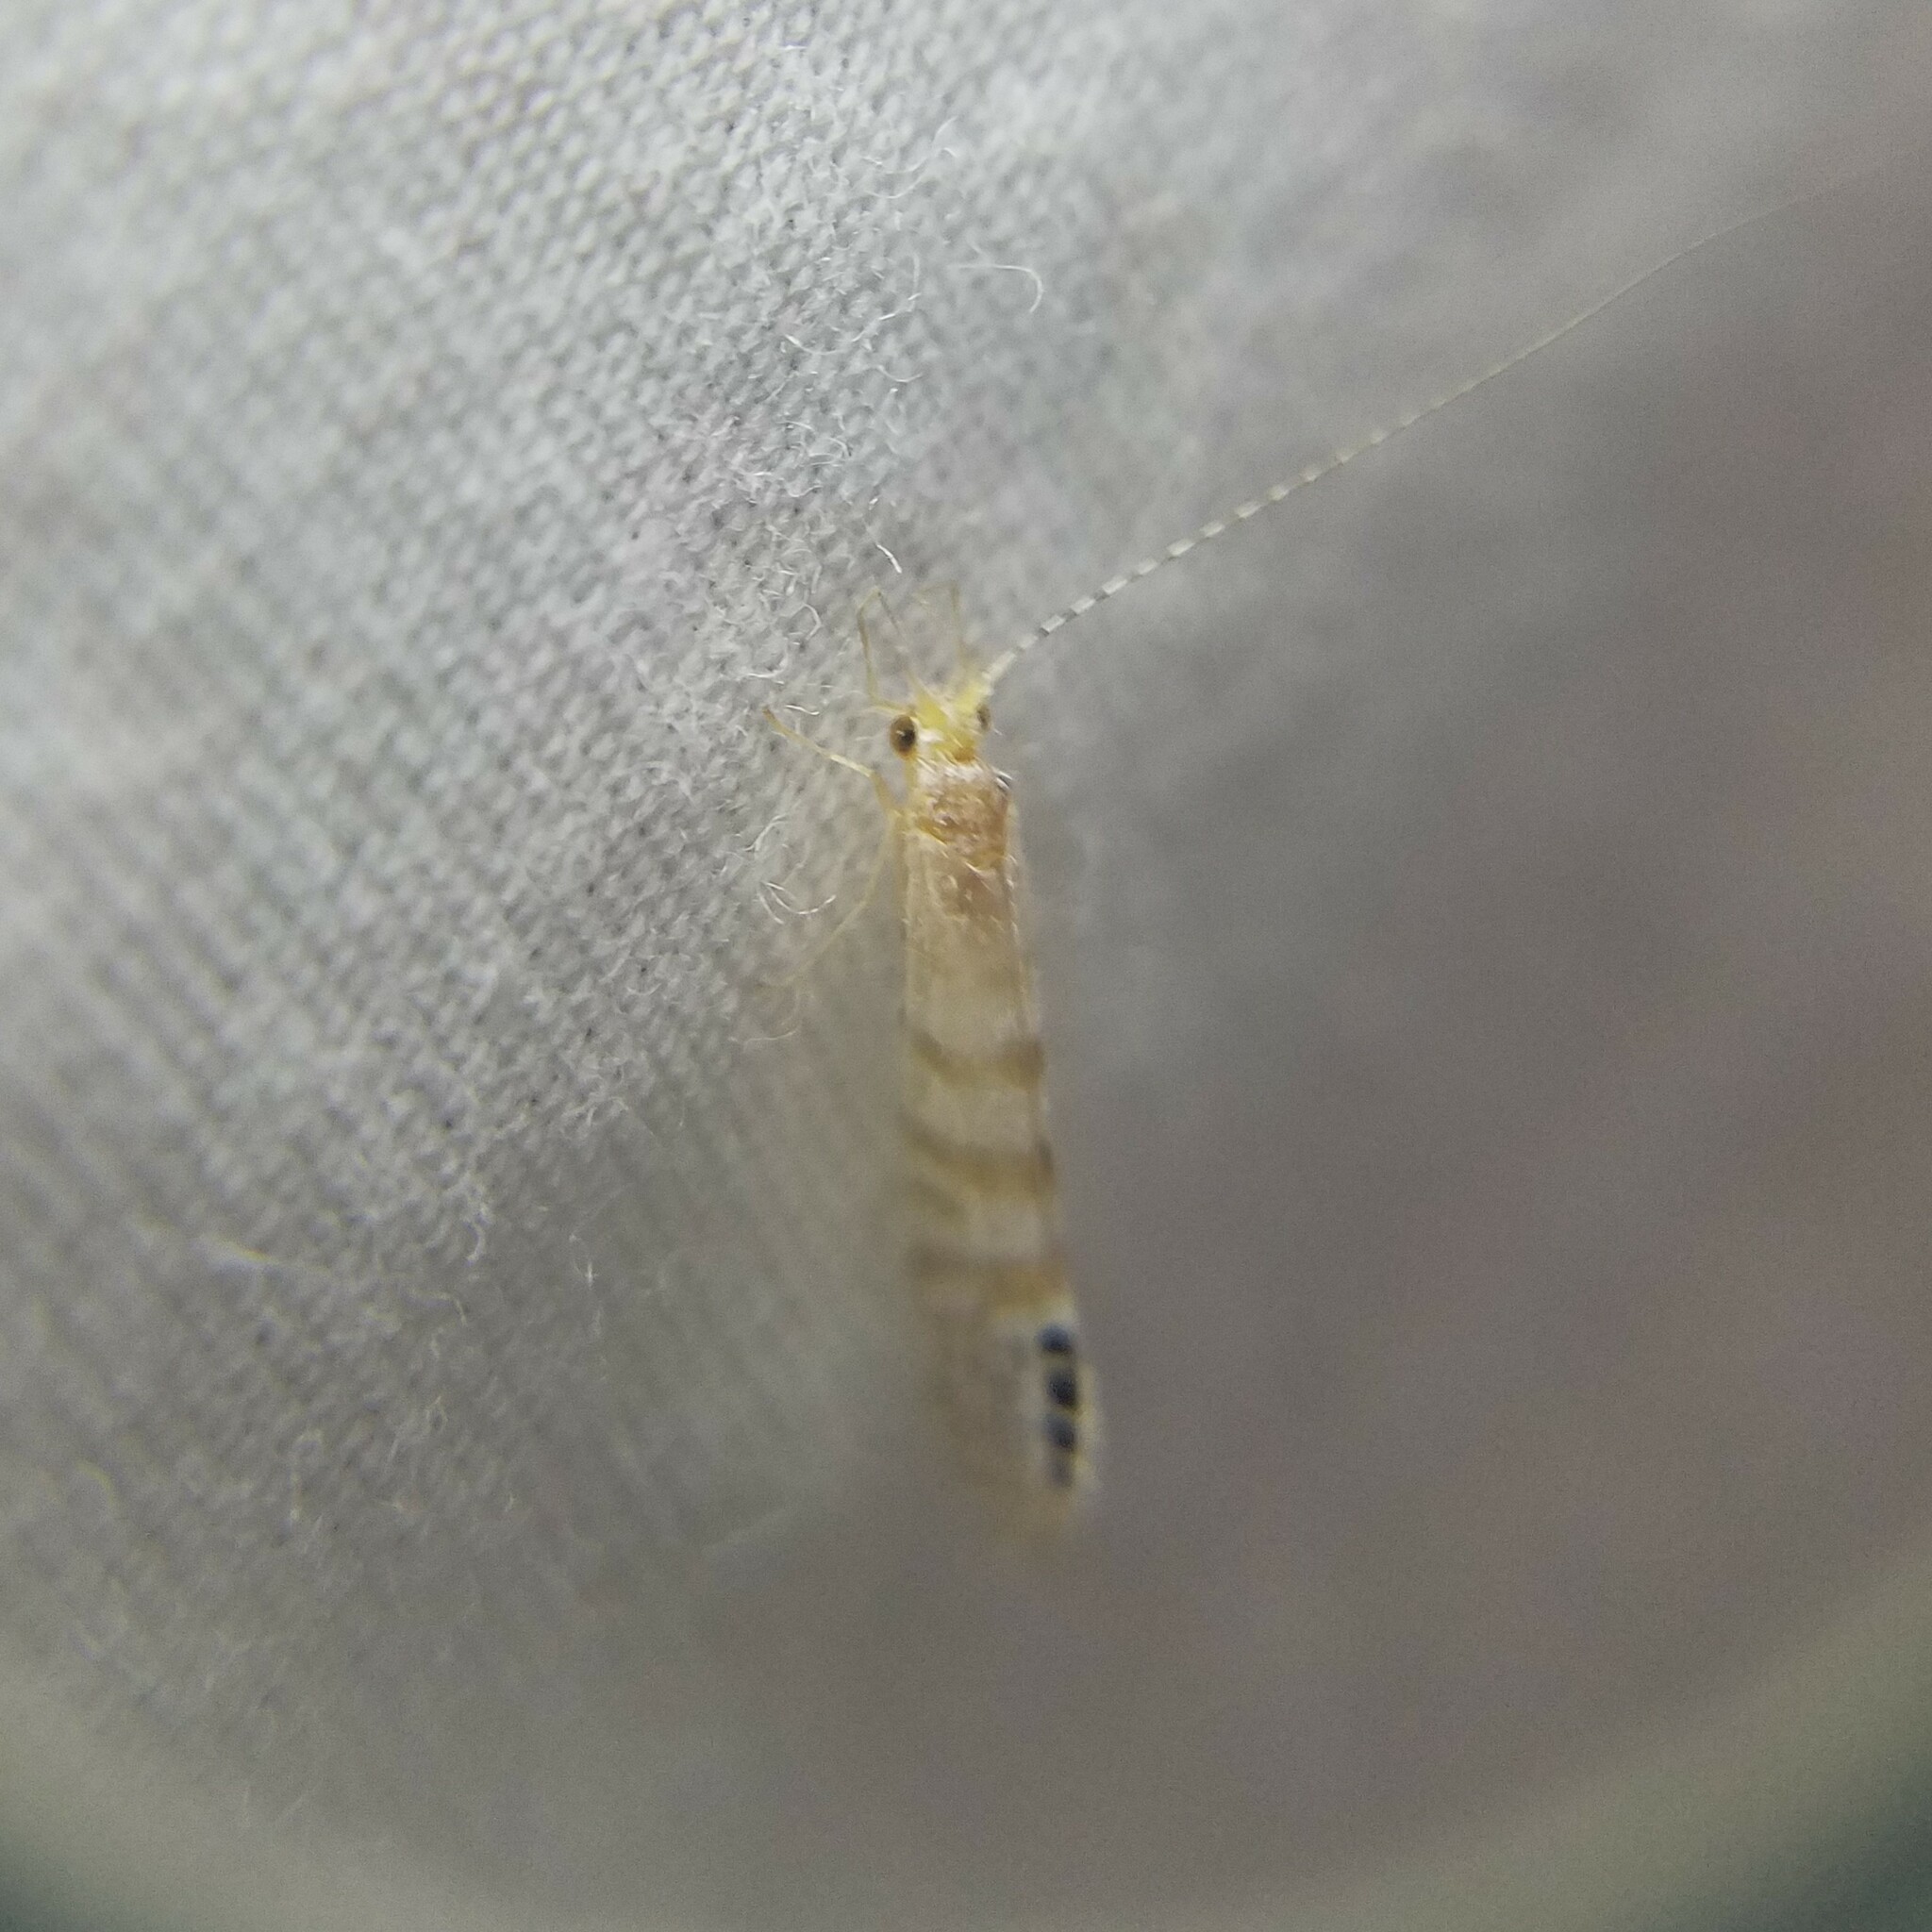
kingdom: Animalia
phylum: Arthropoda
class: Insecta
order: Trichoptera
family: Leptoceridae
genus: Nectopsyche
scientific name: Nectopsyche exquisita
